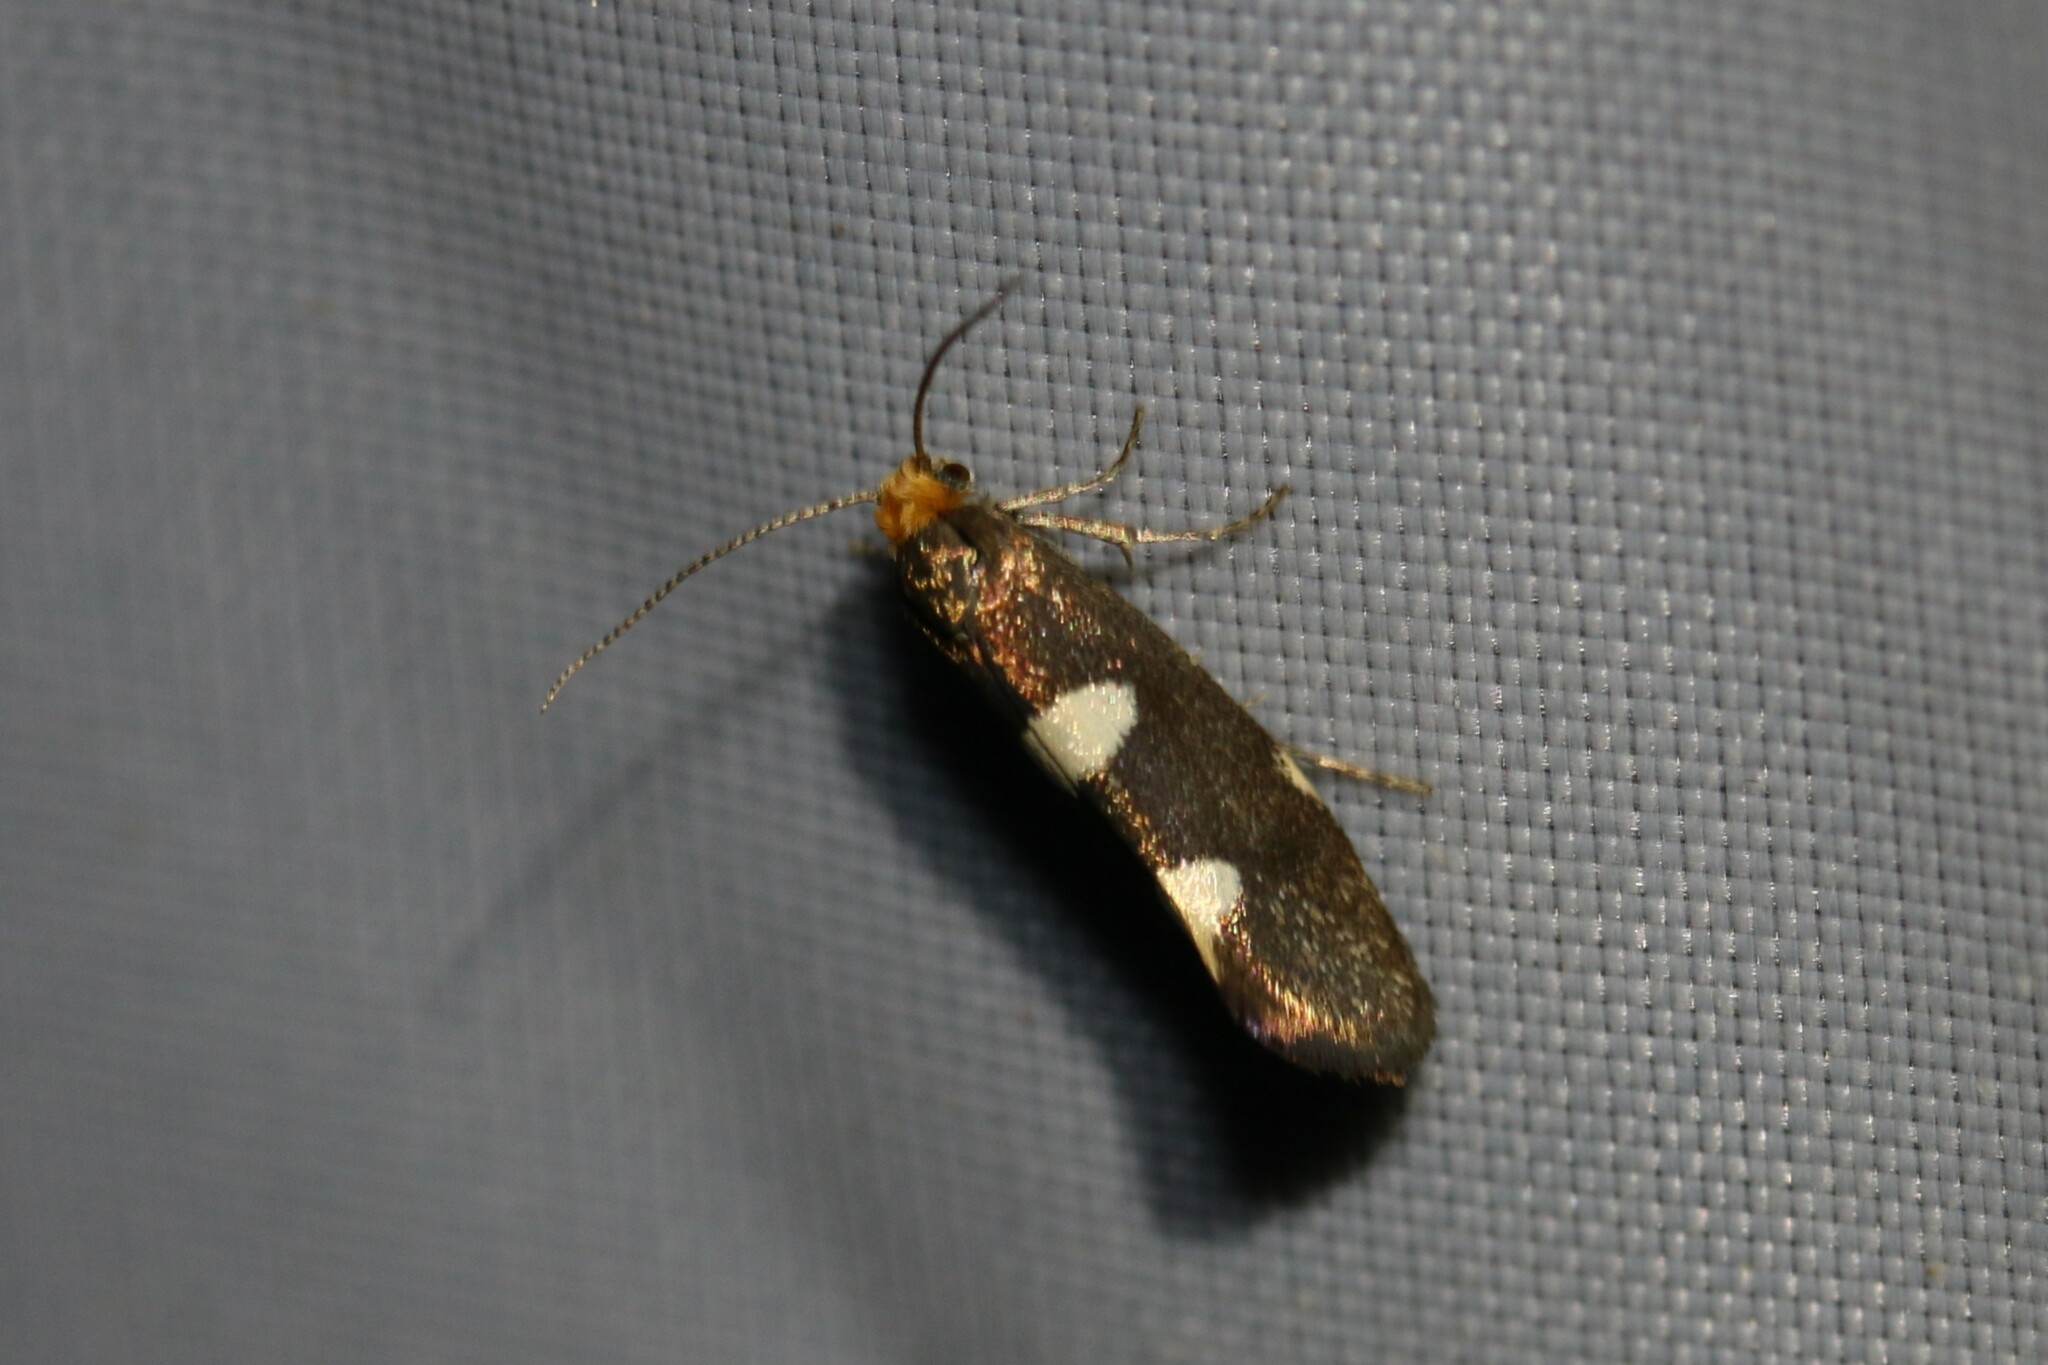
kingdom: Animalia
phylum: Arthropoda
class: Insecta
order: Lepidoptera
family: Incurvariidae
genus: Incurvaria
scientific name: Incurvaria masculella
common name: Feathered leaf-cutter
